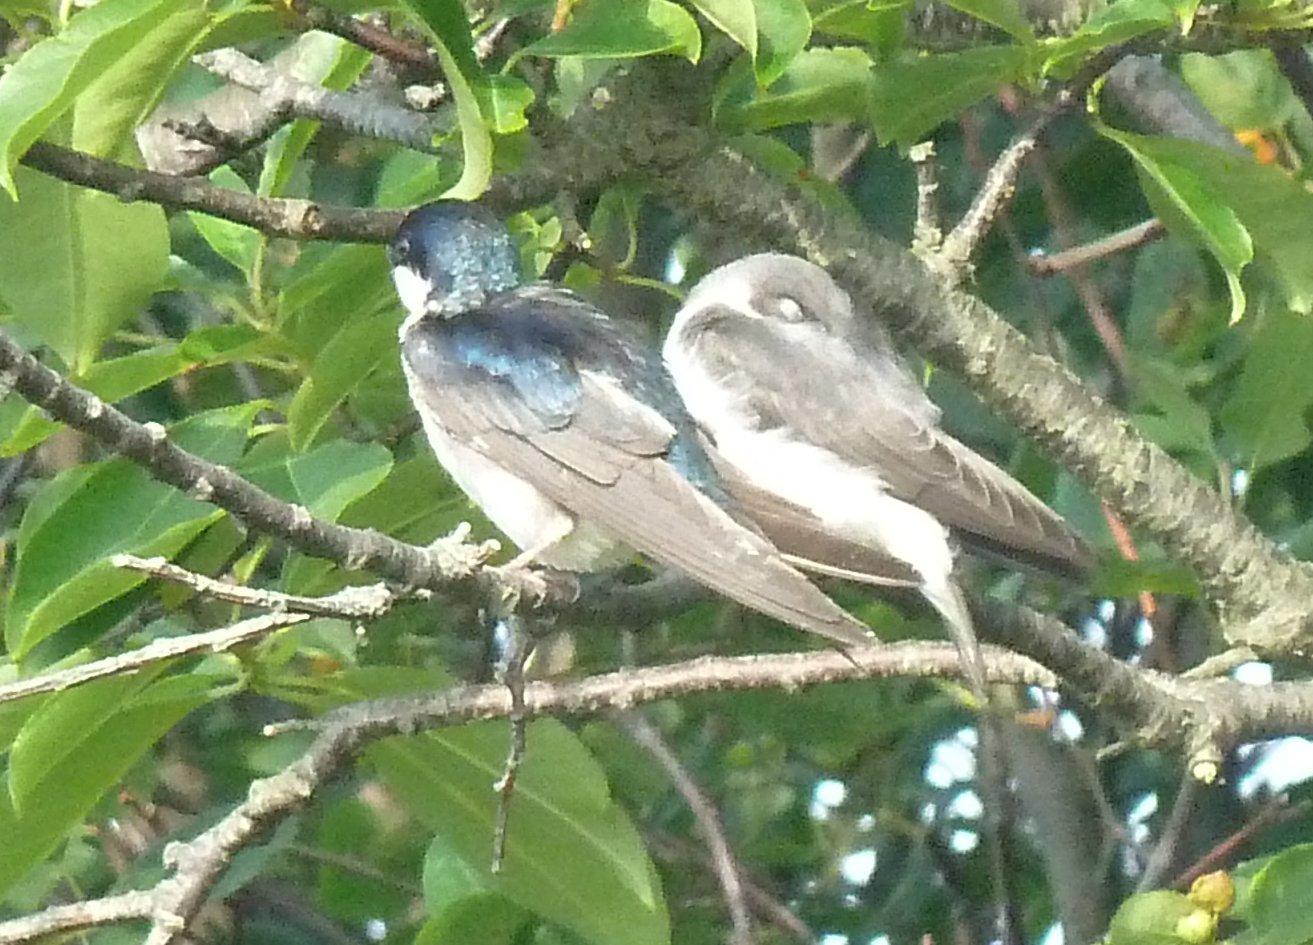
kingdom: Animalia
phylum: Chordata
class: Aves
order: Passeriformes
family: Hirundinidae
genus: Tachycineta
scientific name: Tachycineta bicolor
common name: Tree swallow
